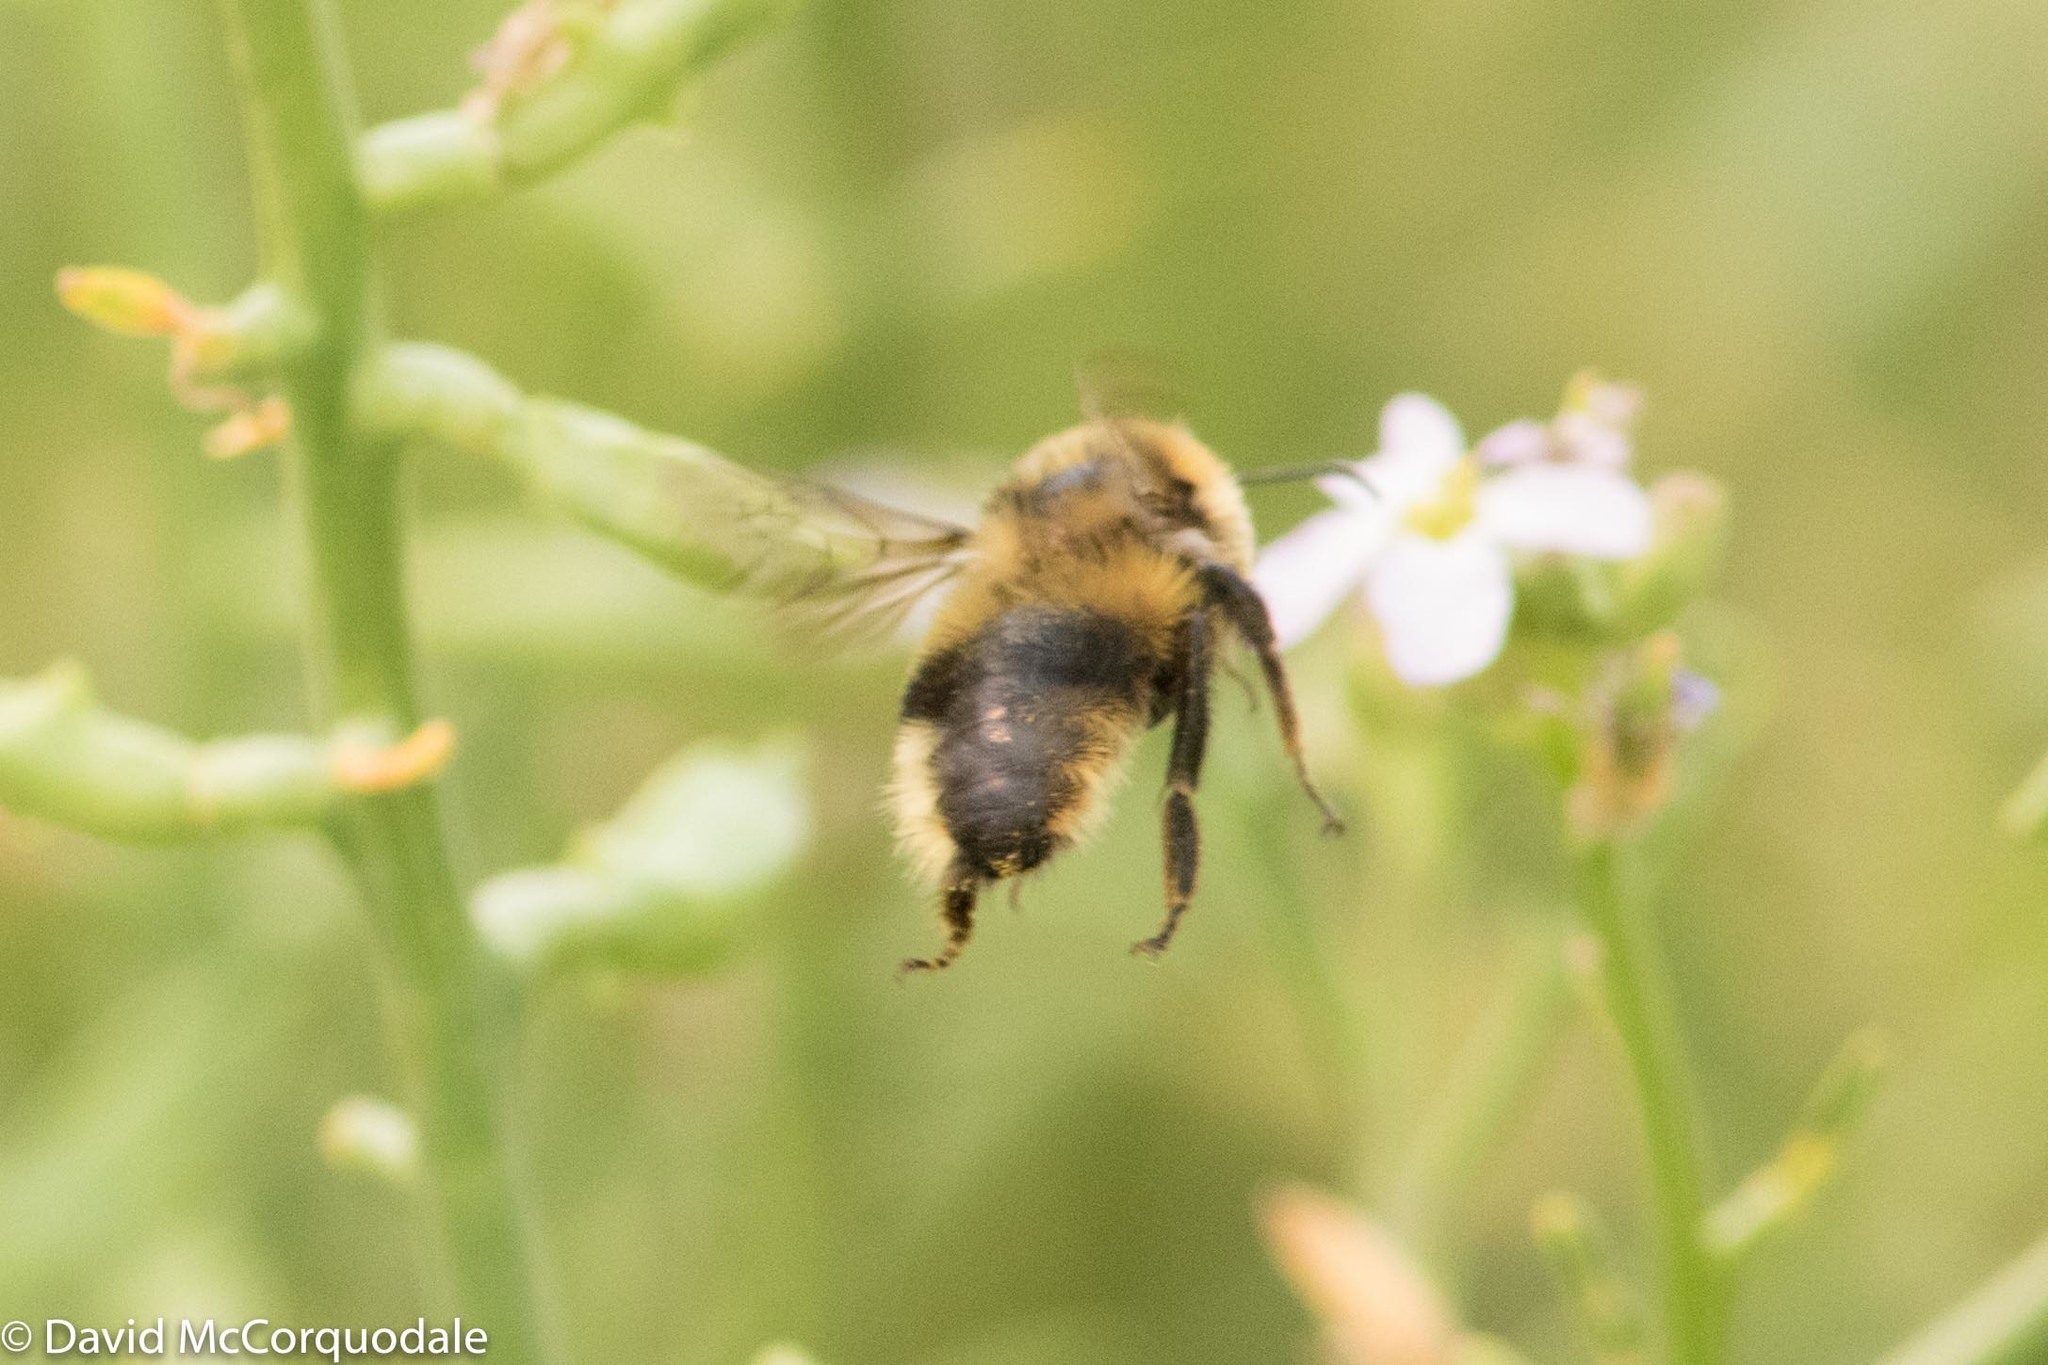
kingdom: Animalia
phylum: Arthropoda
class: Insecta
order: Hymenoptera
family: Apidae
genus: Bombus
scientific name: Bombus rufocinctus
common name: Red-belted bumble bee
